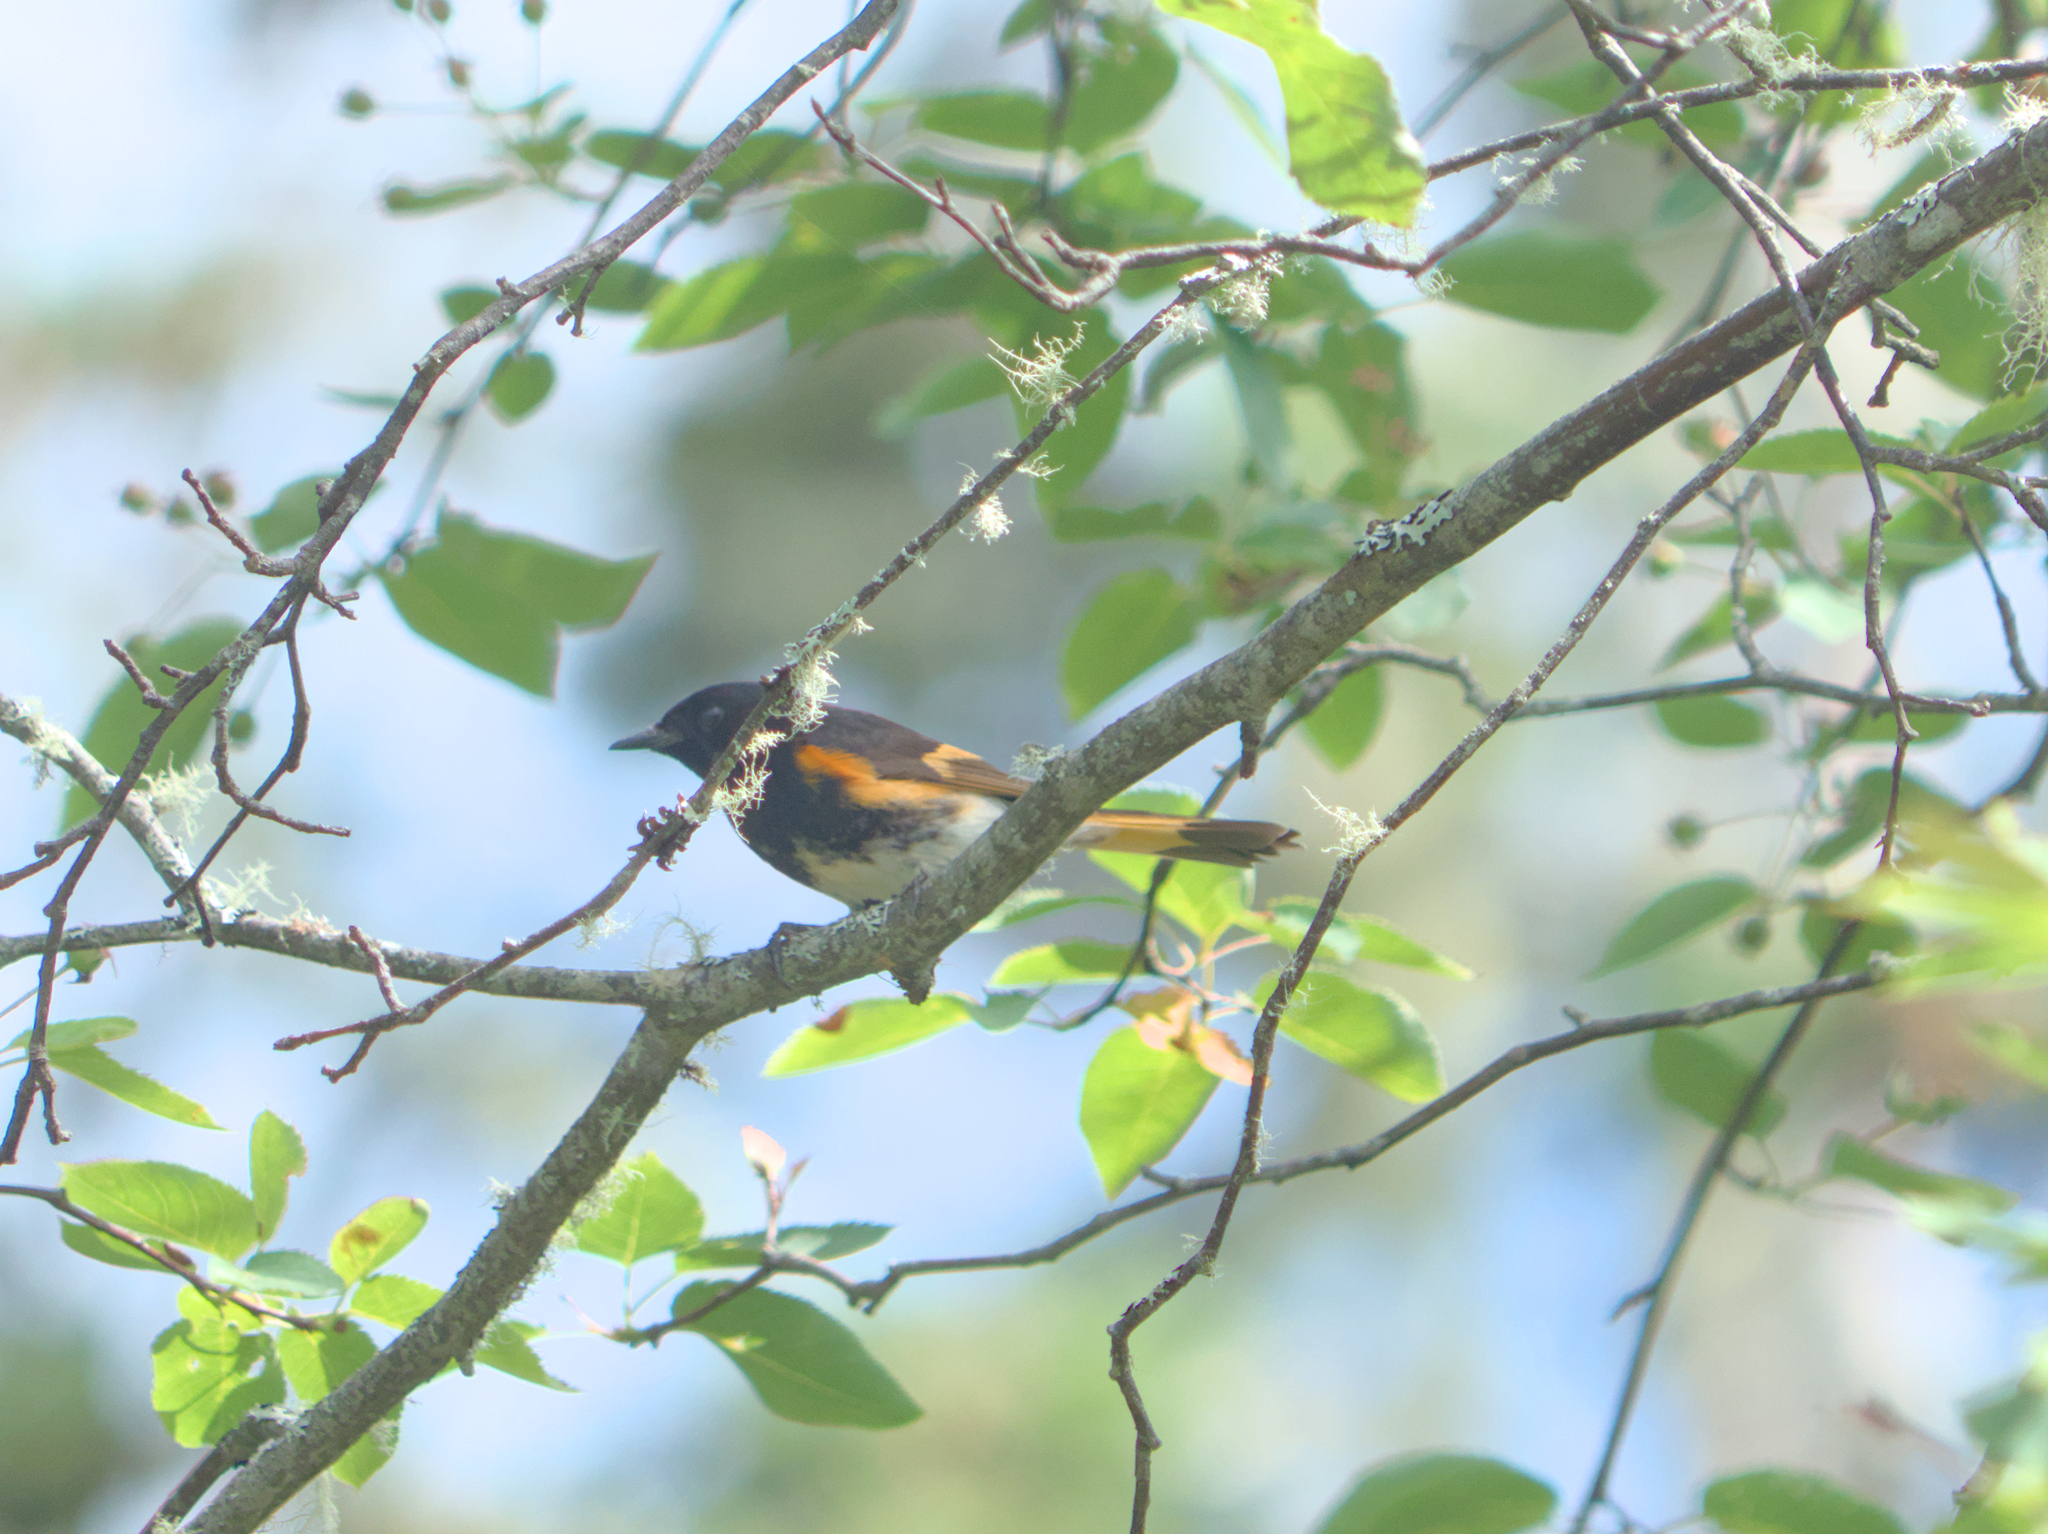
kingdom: Animalia
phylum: Chordata
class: Aves
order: Passeriformes
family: Parulidae
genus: Setophaga
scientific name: Setophaga ruticilla
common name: American redstart
